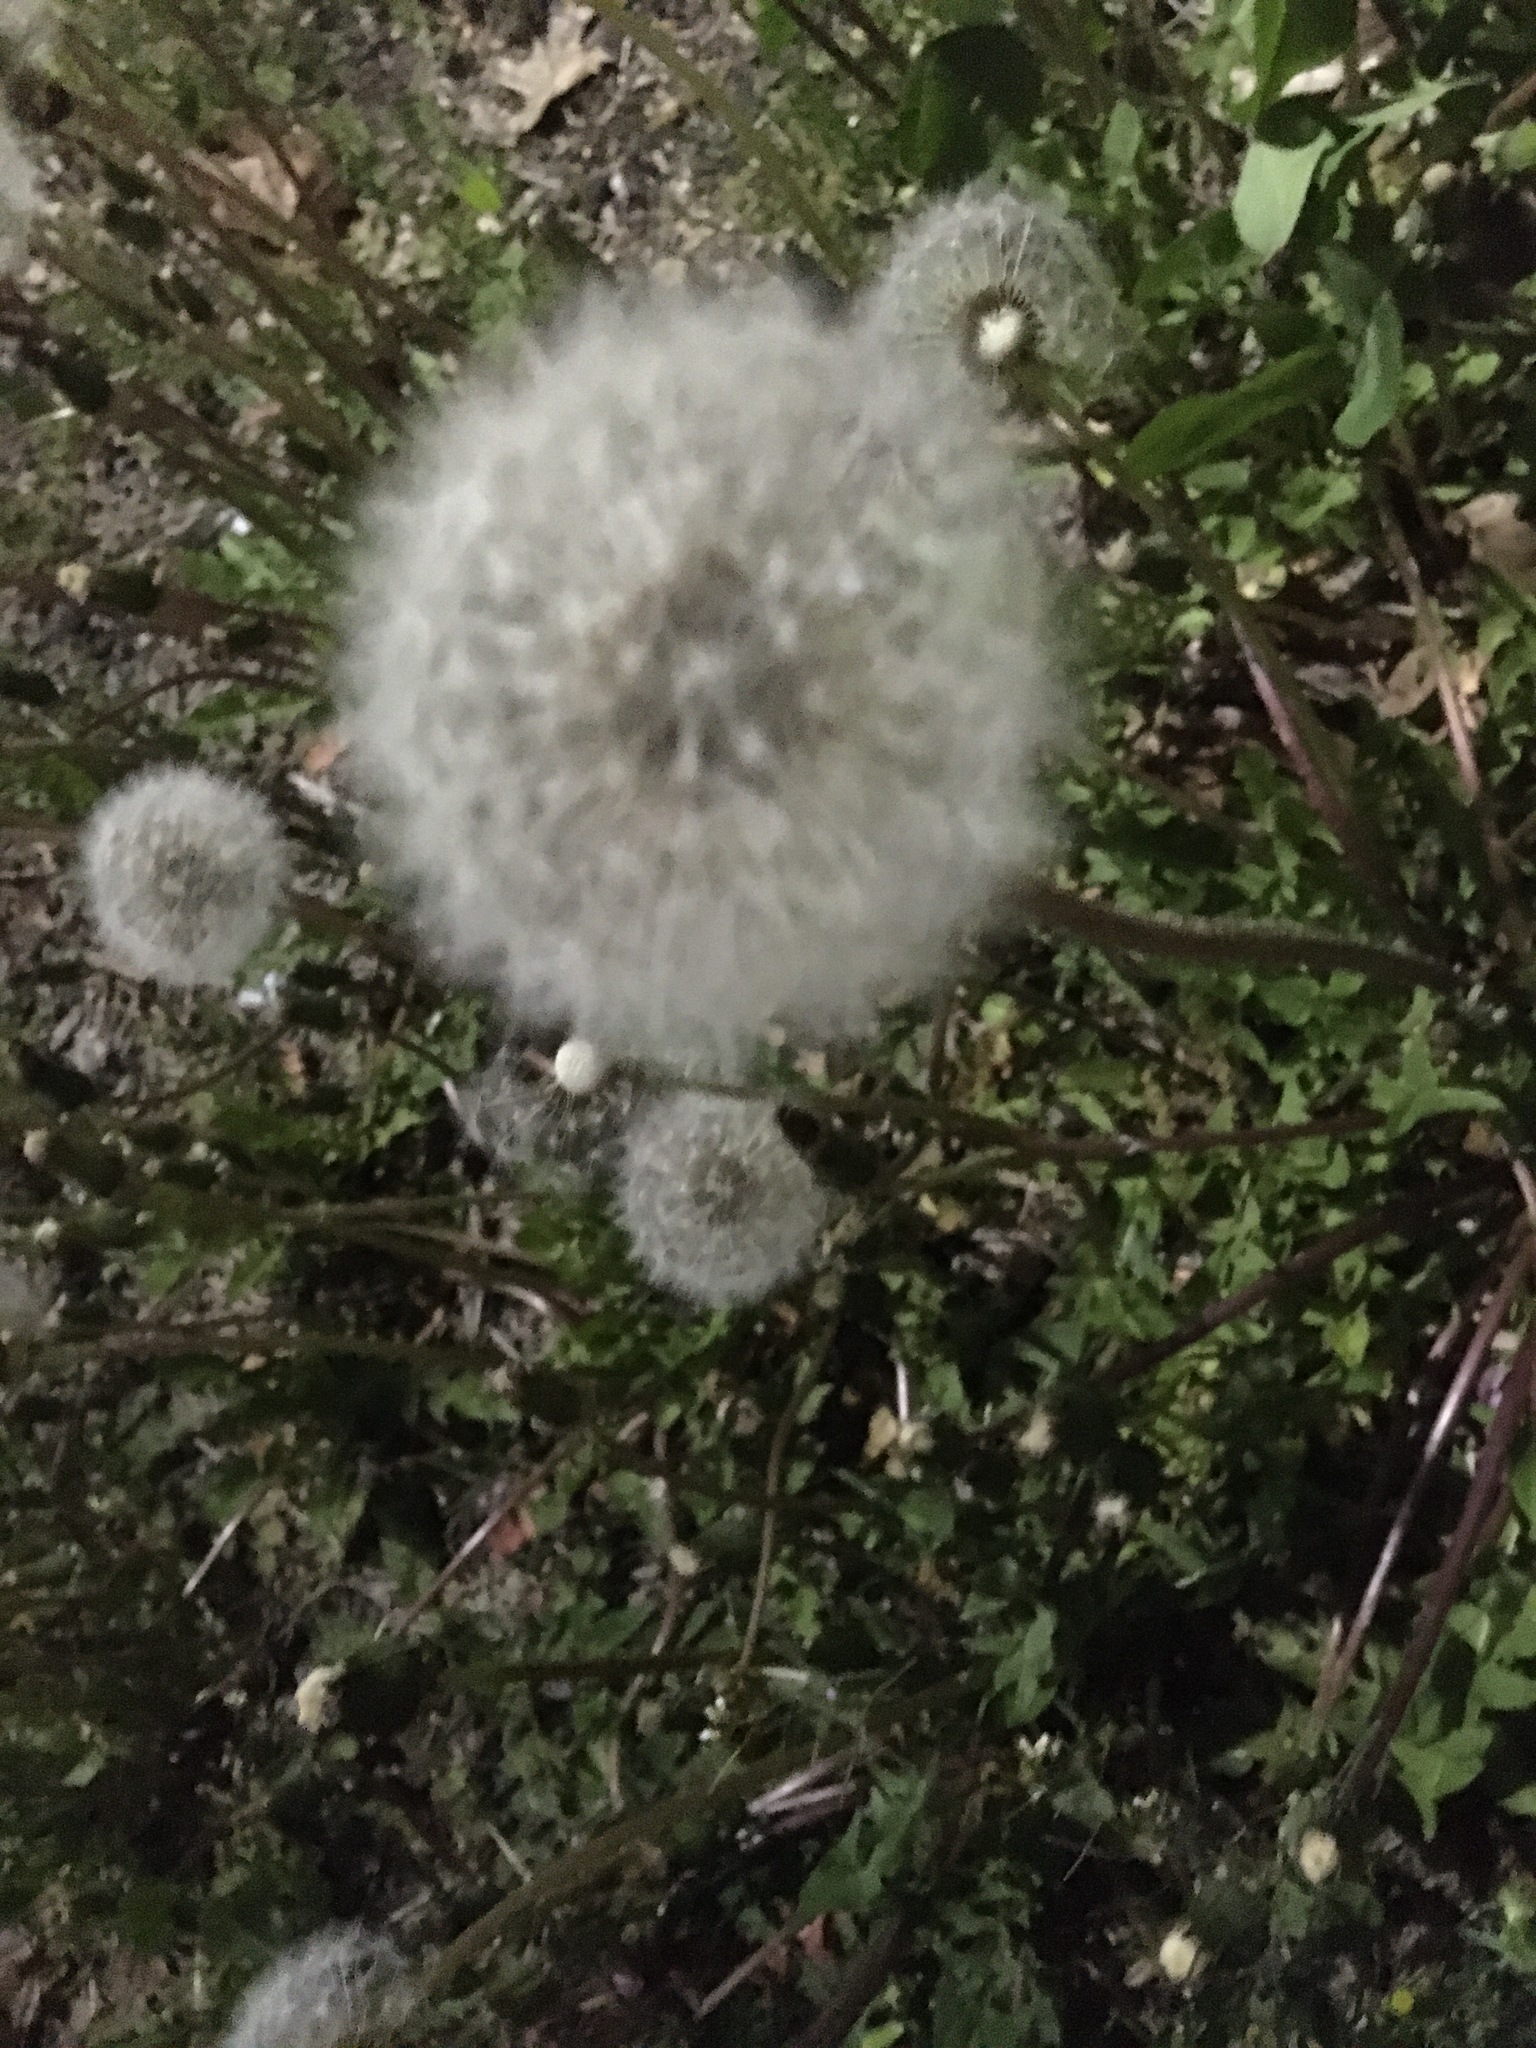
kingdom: Plantae
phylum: Tracheophyta
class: Magnoliopsida
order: Asterales
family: Asteraceae
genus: Taraxacum
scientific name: Taraxacum officinale
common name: Common dandelion
